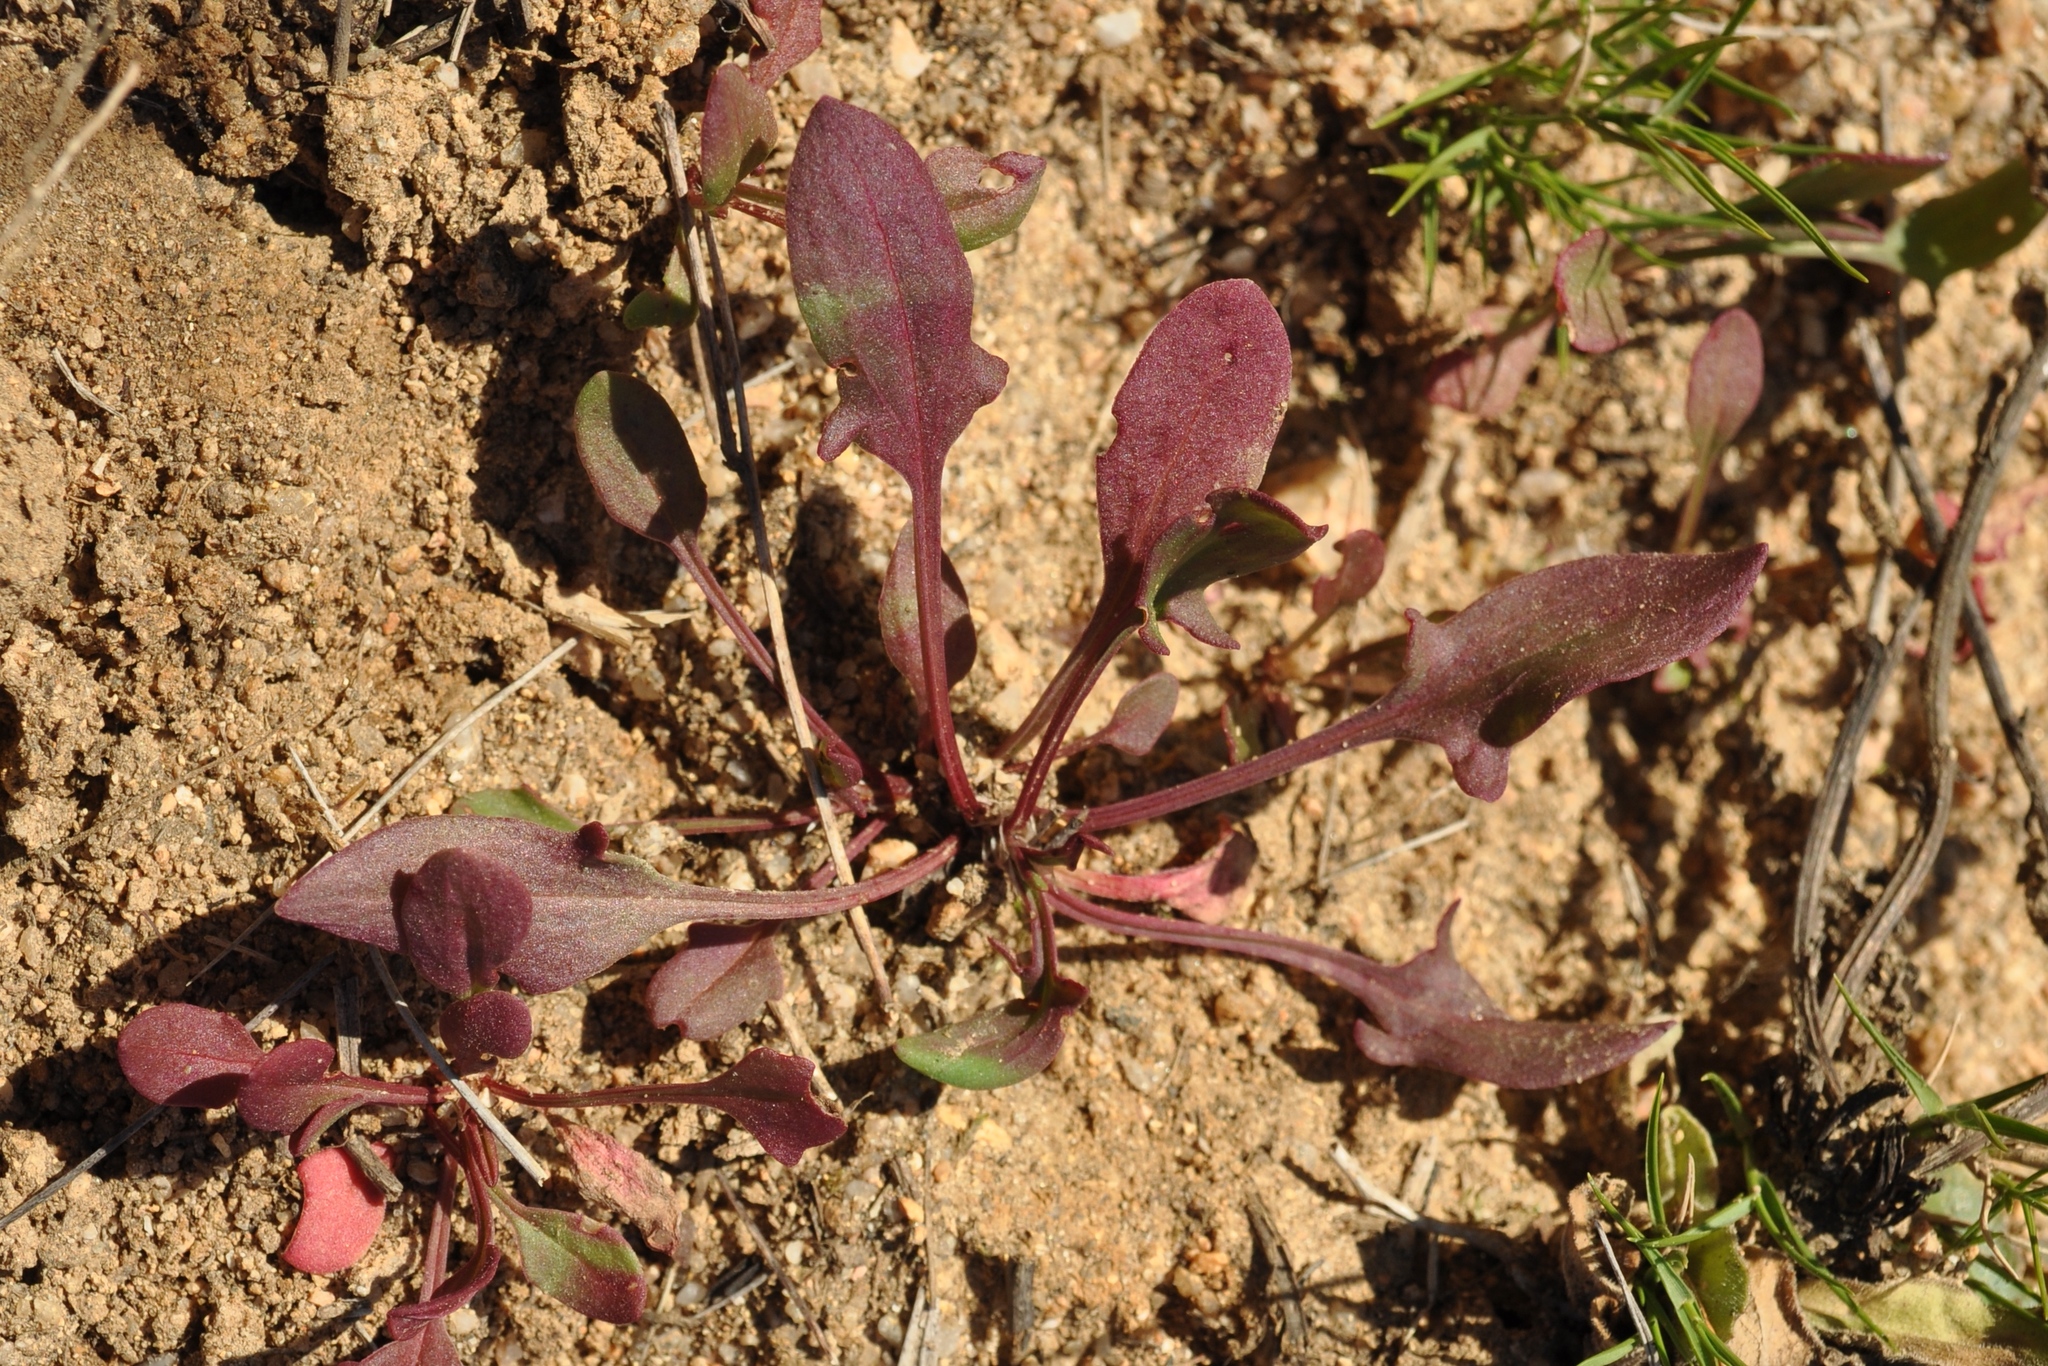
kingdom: Plantae
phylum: Tracheophyta
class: Magnoliopsida
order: Caryophyllales
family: Polygonaceae
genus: Rumex
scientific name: Rumex acetosella
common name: Common sheep sorrel
